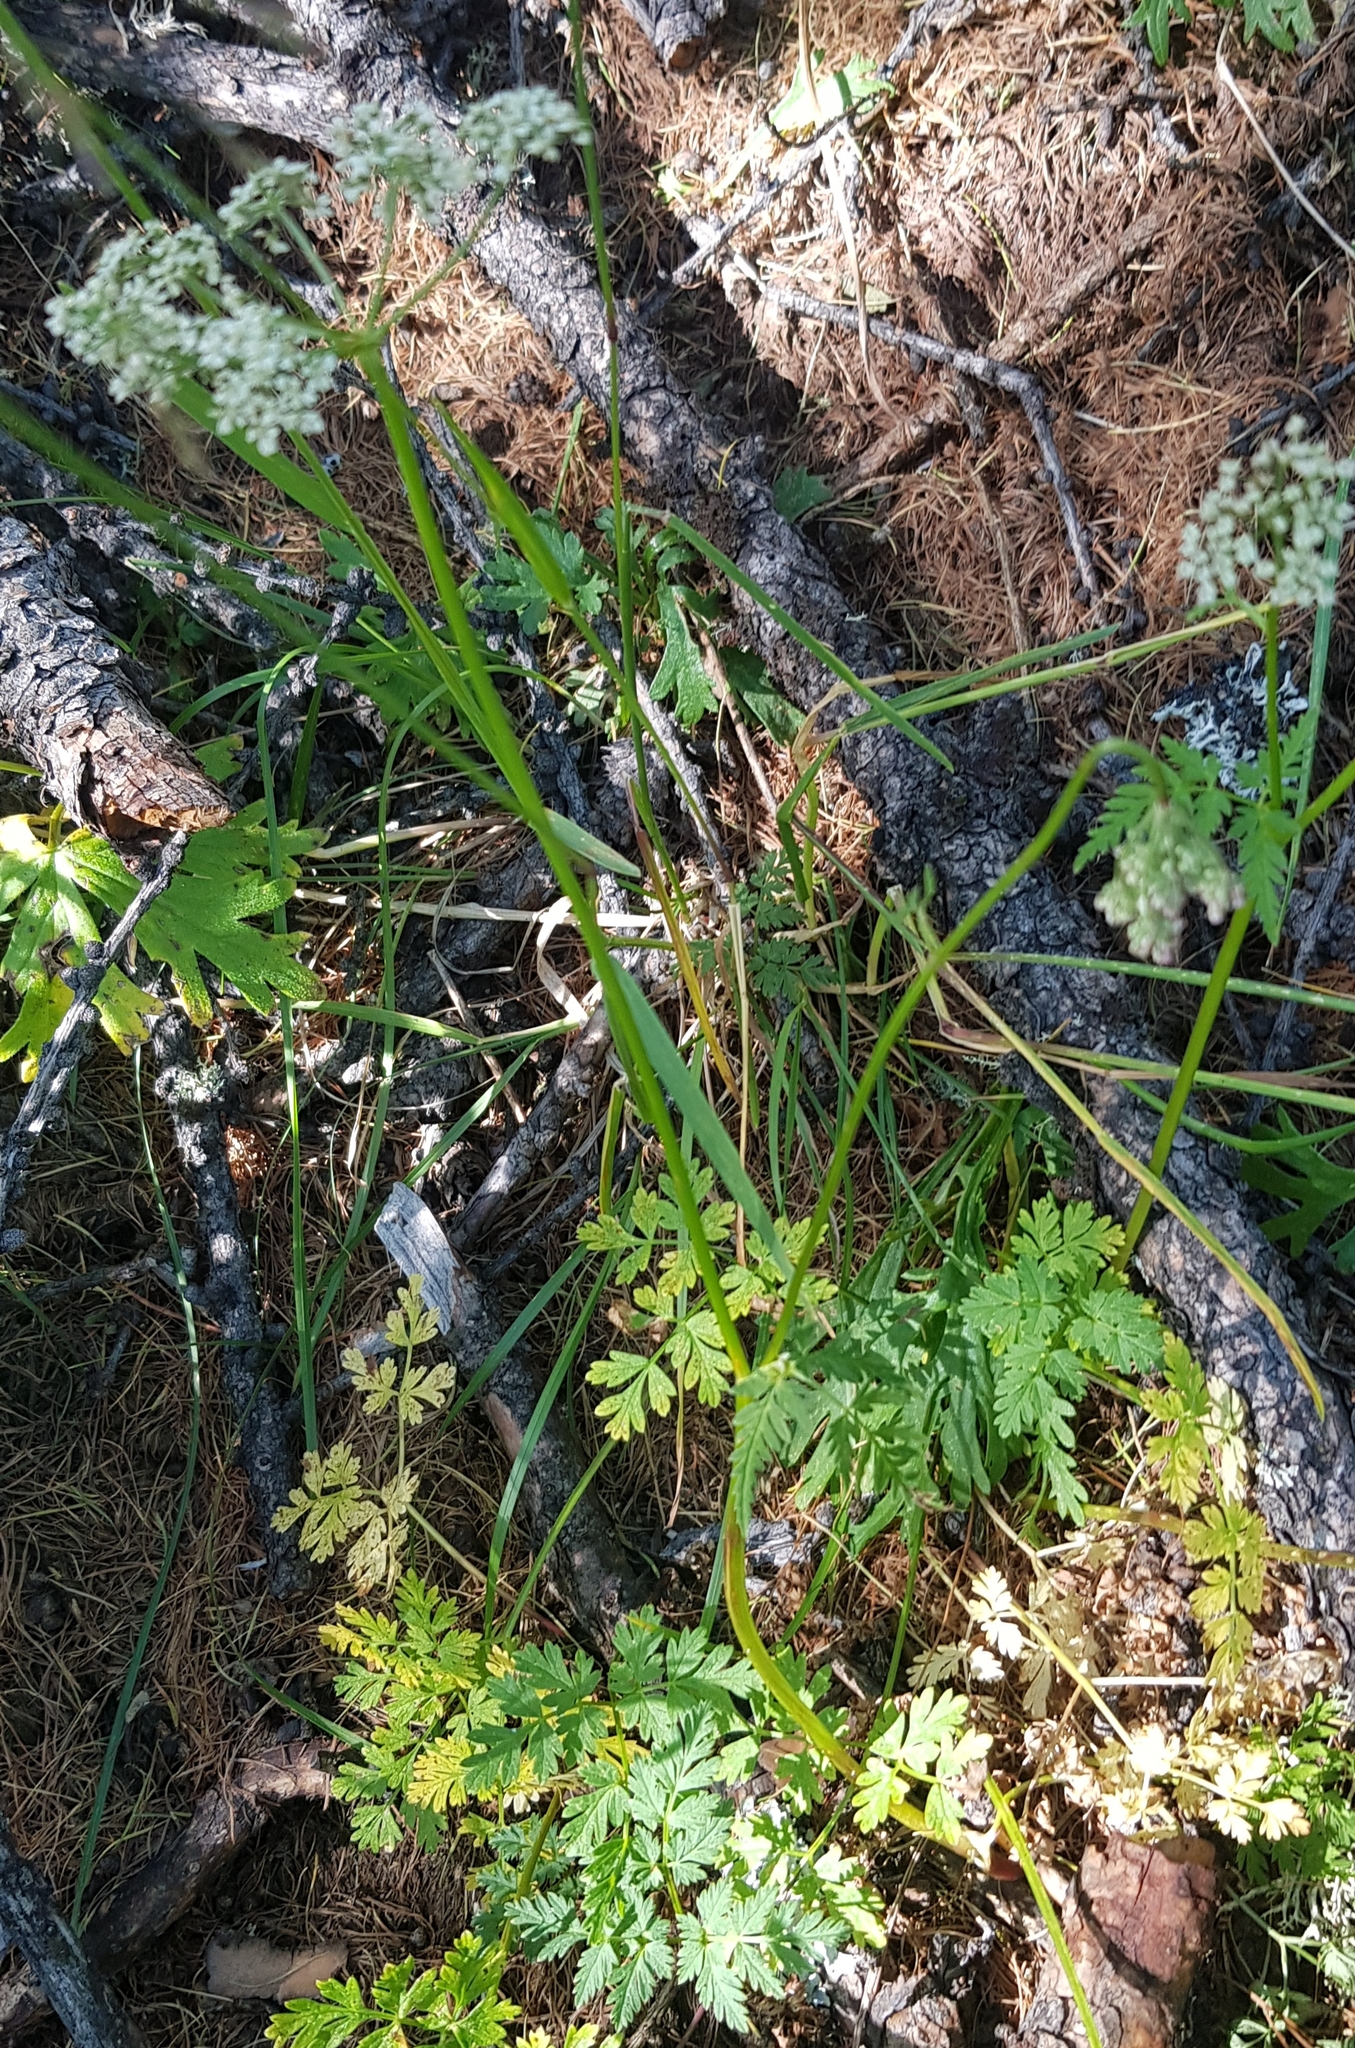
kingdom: Plantae
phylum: Tracheophyta
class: Magnoliopsida
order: Apiales
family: Apiaceae
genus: Aegopodium
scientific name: Aegopodium alpestre
